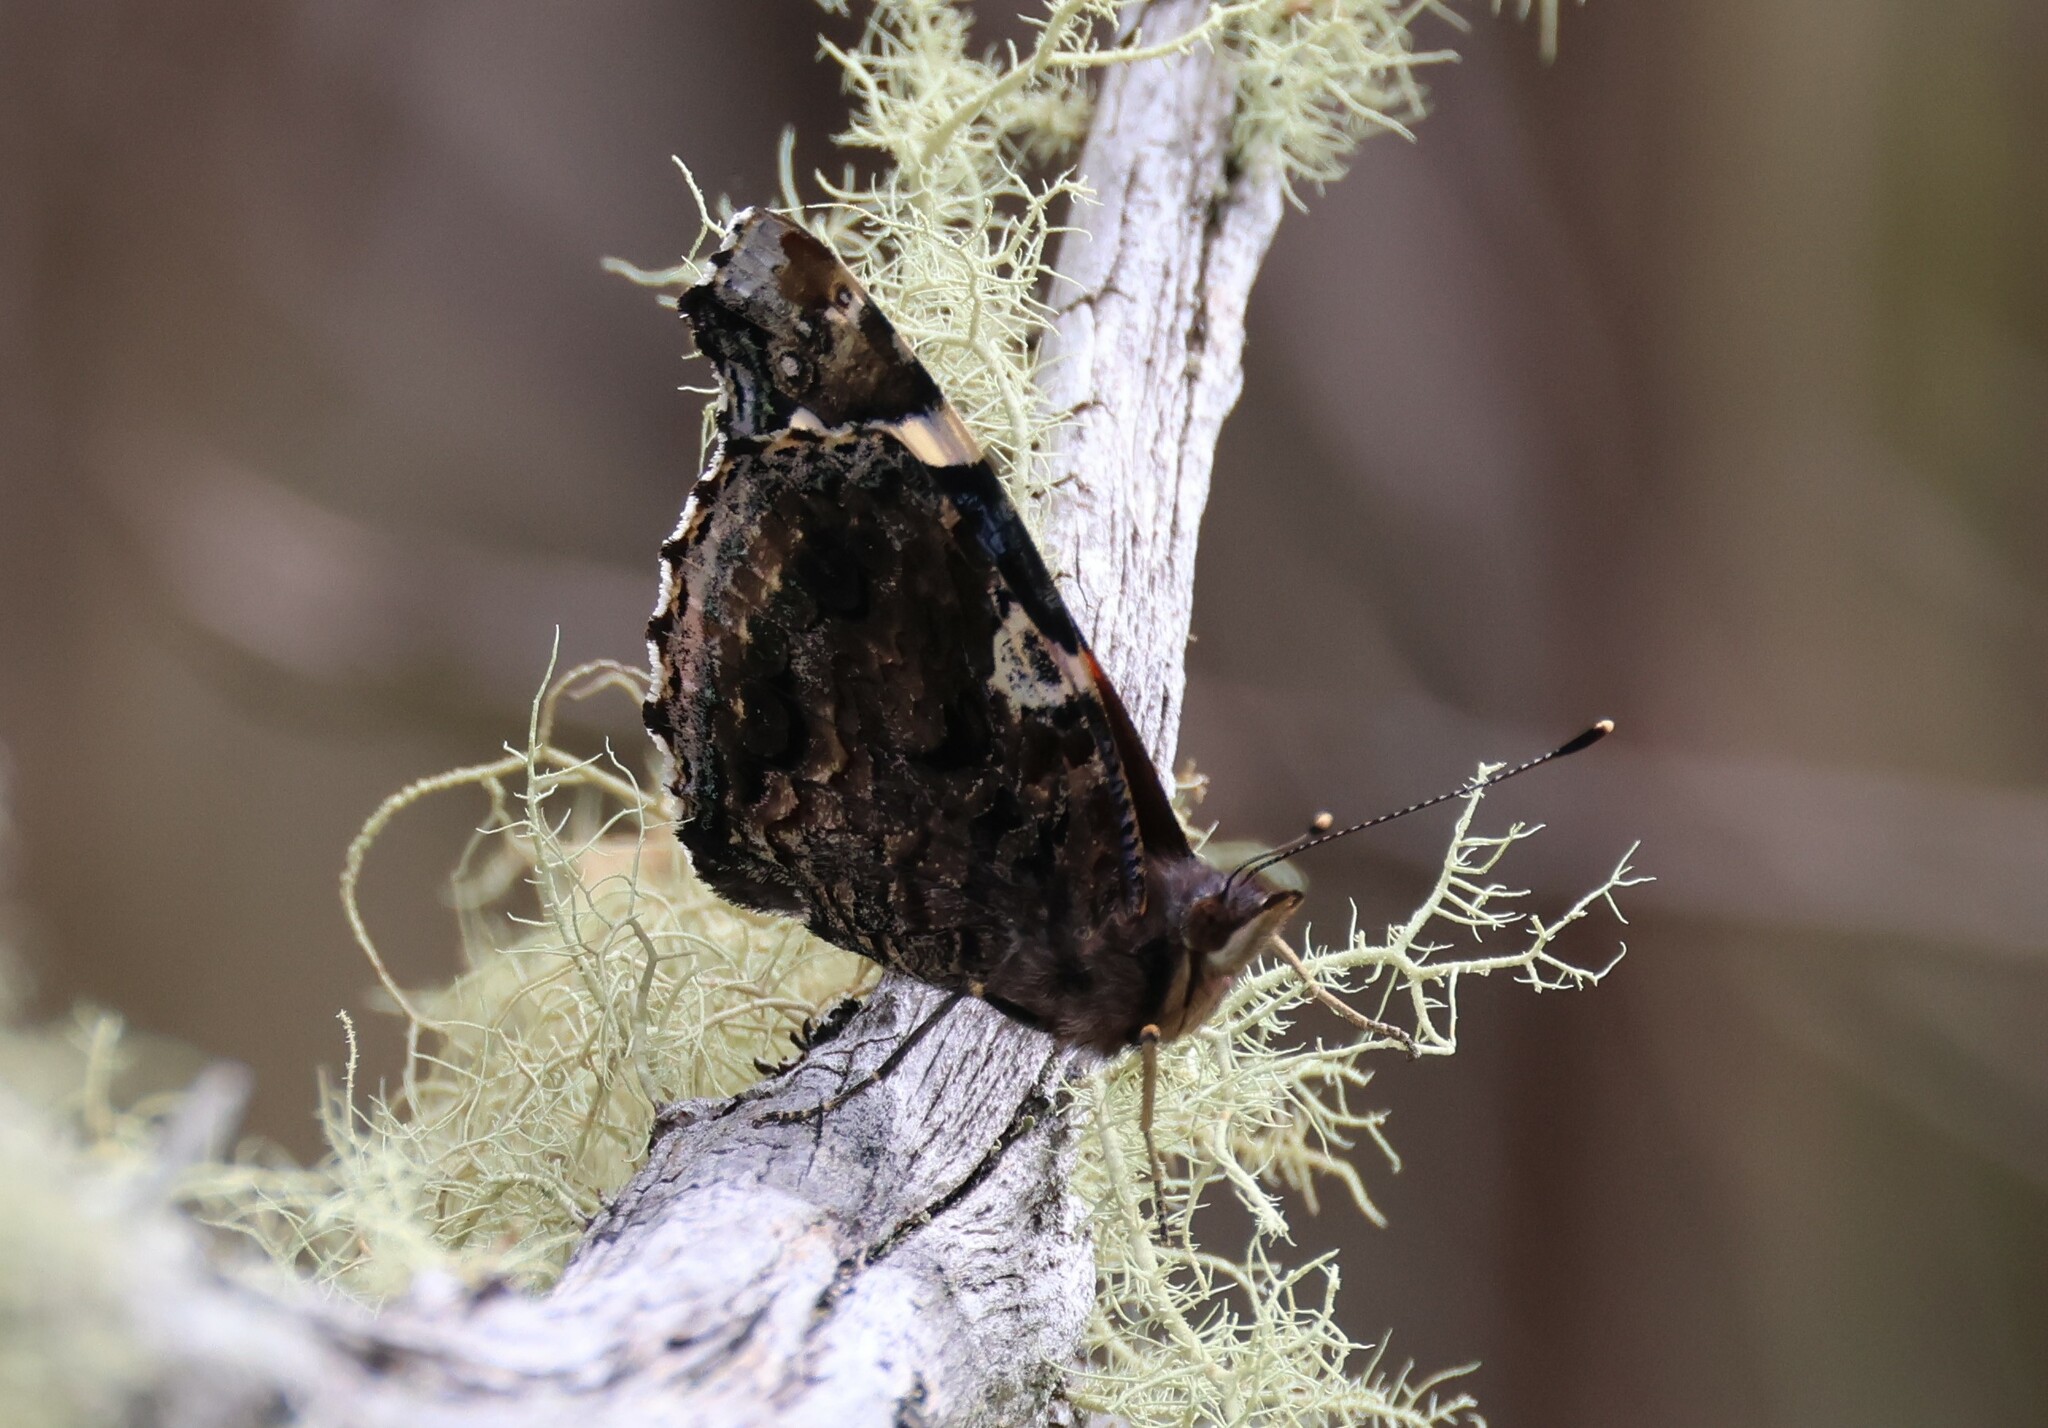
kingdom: Animalia
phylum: Arthropoda
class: Insecta
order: Lepidoptera
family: Nymphalidae
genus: Vanessa
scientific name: Vanessa atalanta
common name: Red admiral
